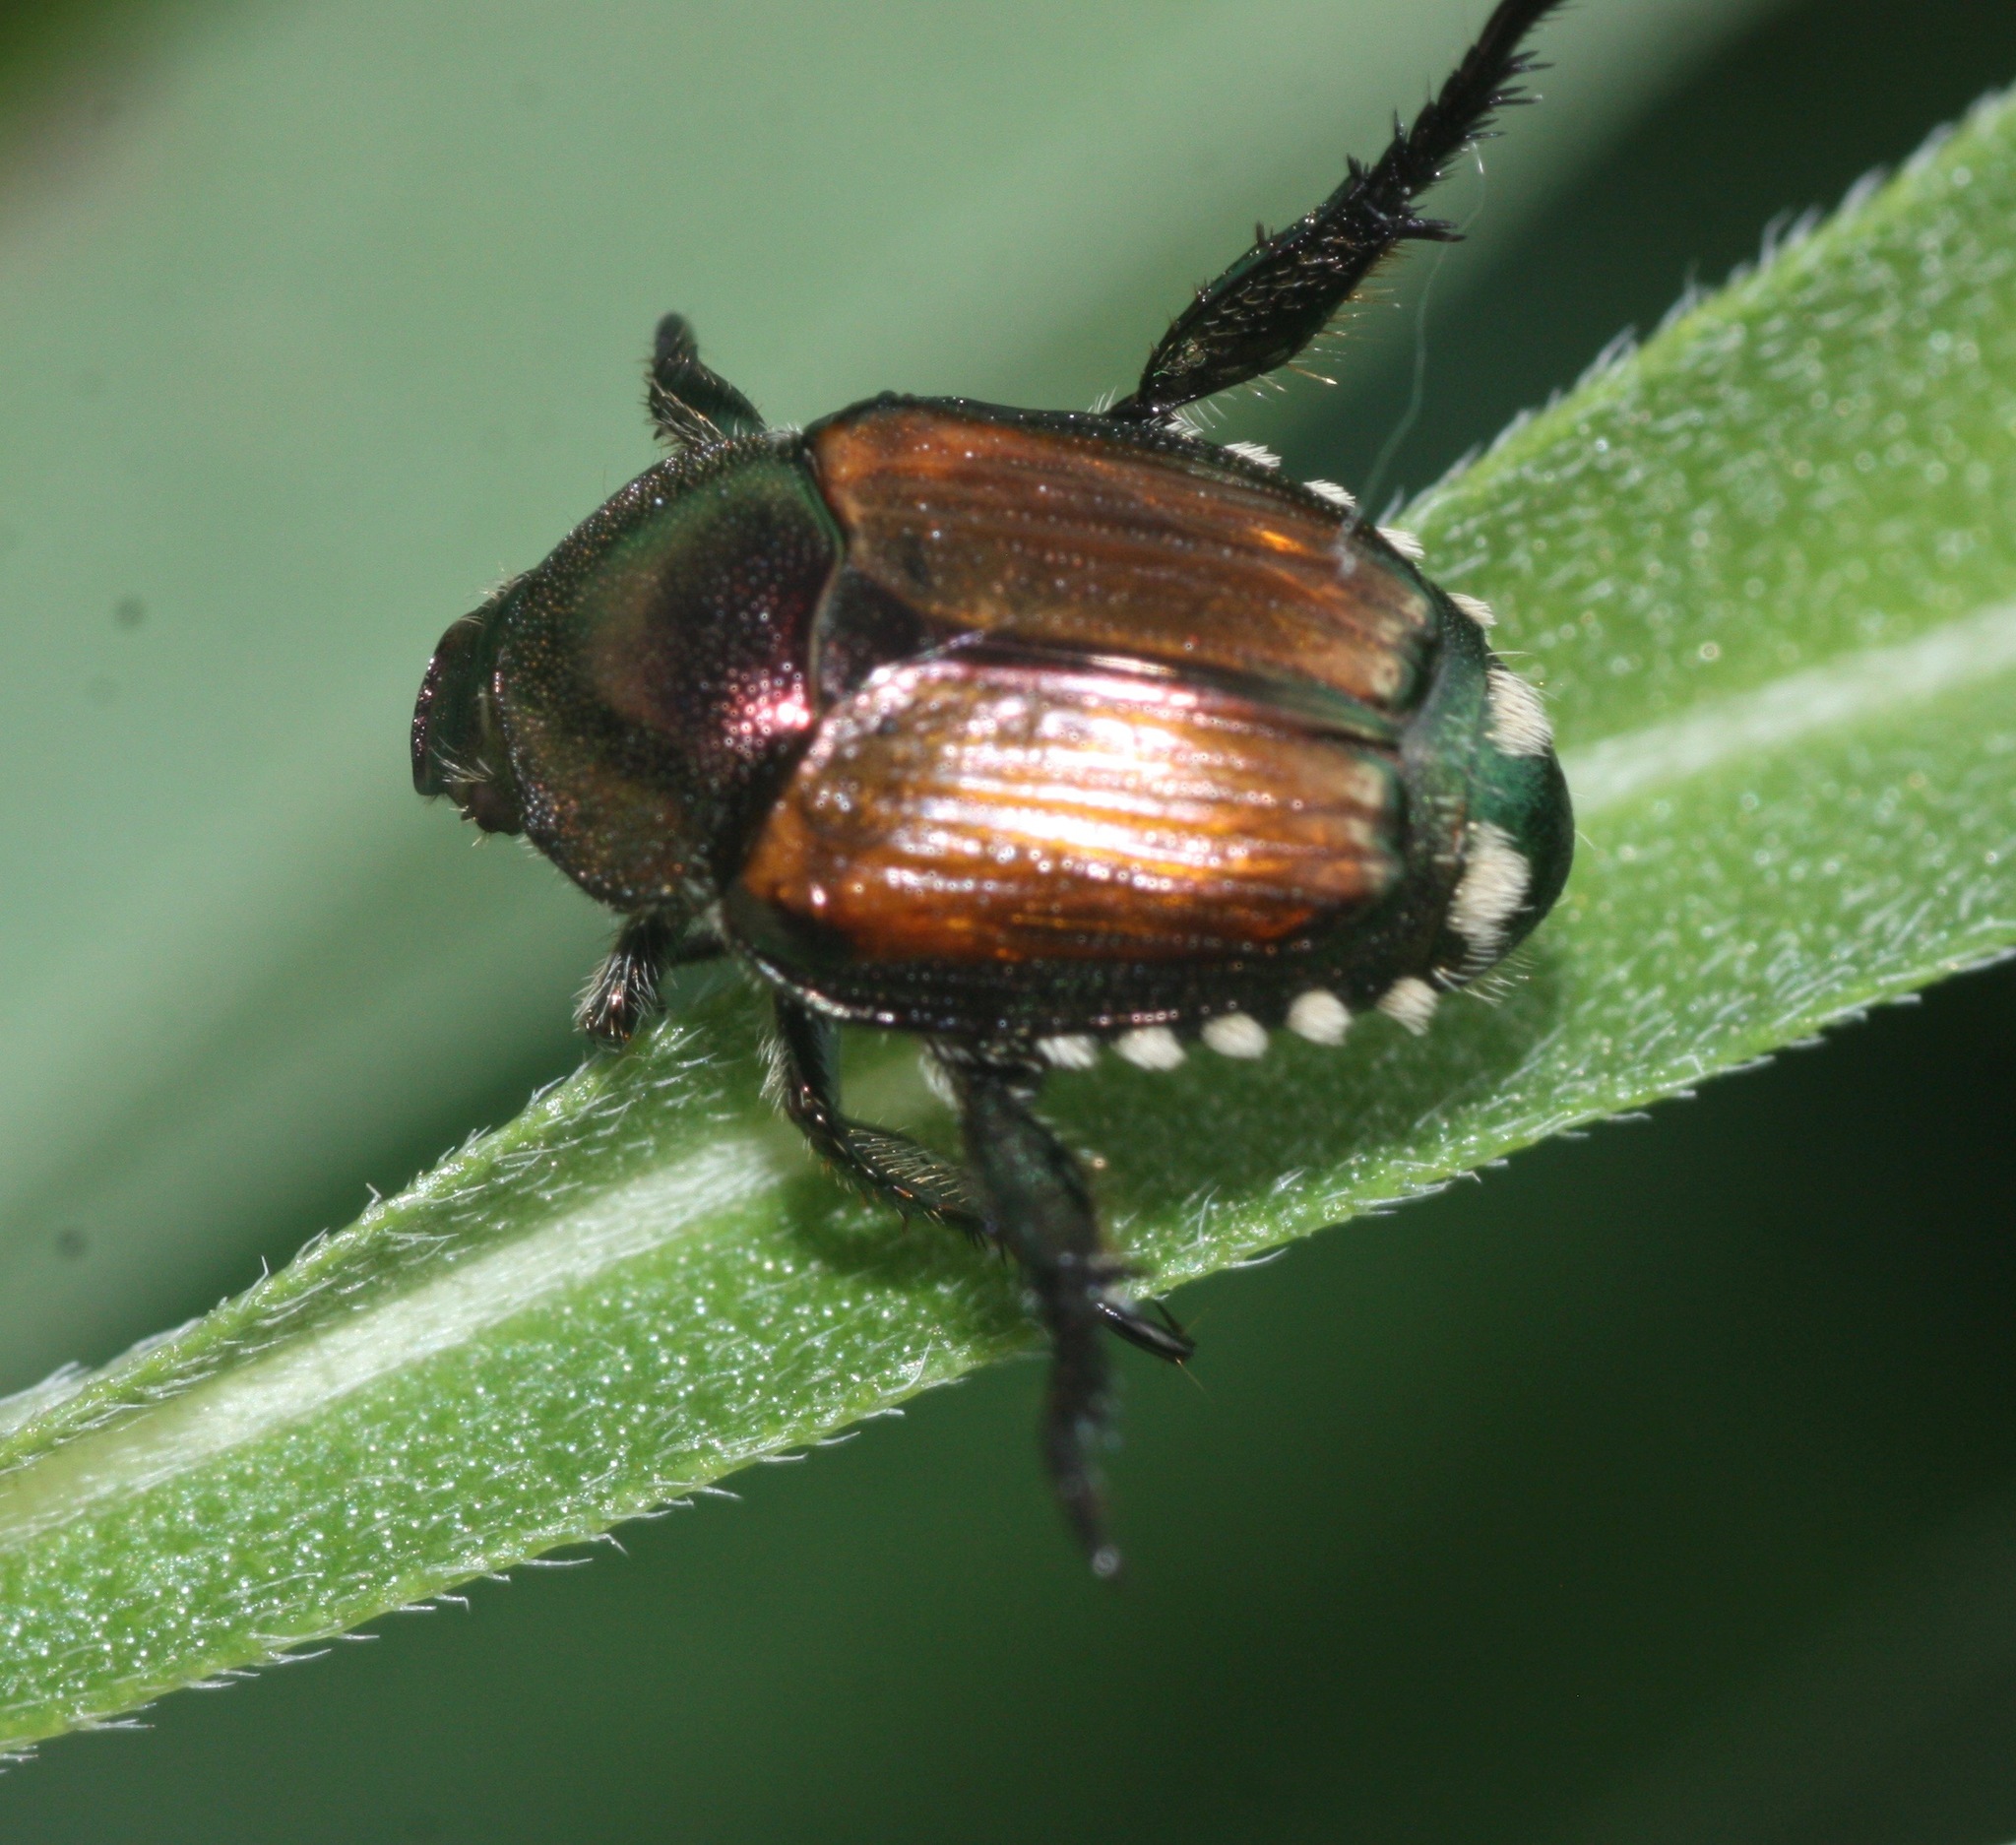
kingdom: Animalia
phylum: Arthropoda
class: Insecta
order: Coleoptera
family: Scarabaeidae
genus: Popillia
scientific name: Popillia japonica
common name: Japanese beetle
